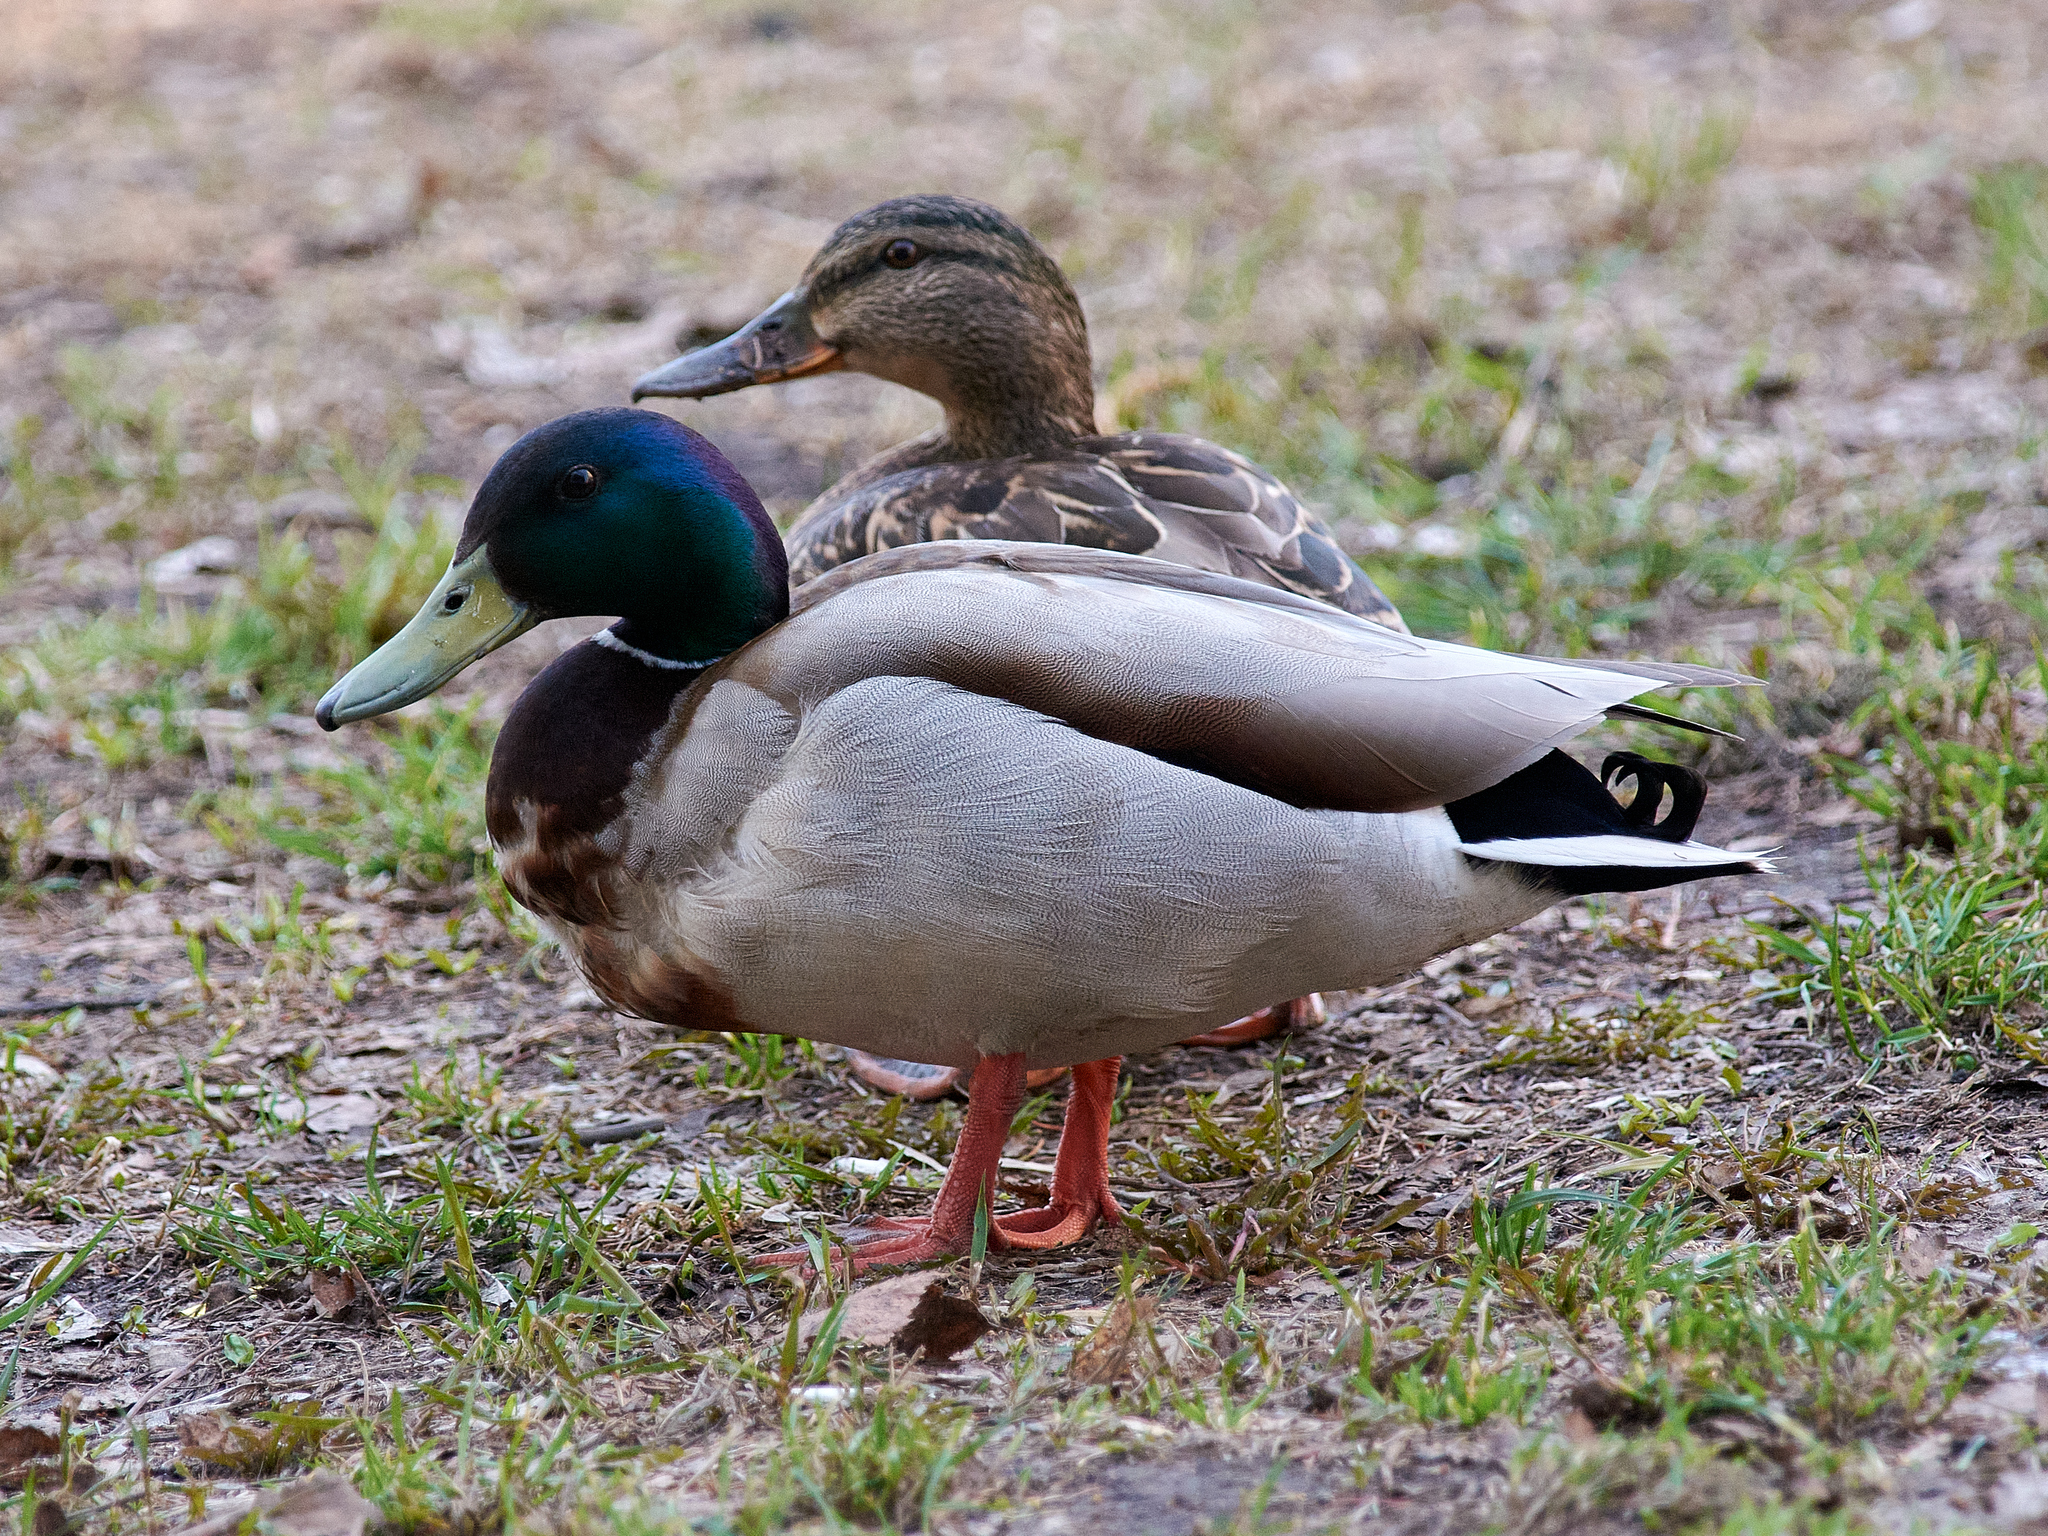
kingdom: Animalia
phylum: Chordata
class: Aves
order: Anseriformes
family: Anatidae
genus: Anas
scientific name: Anas platyrhynchos
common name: Mallard
